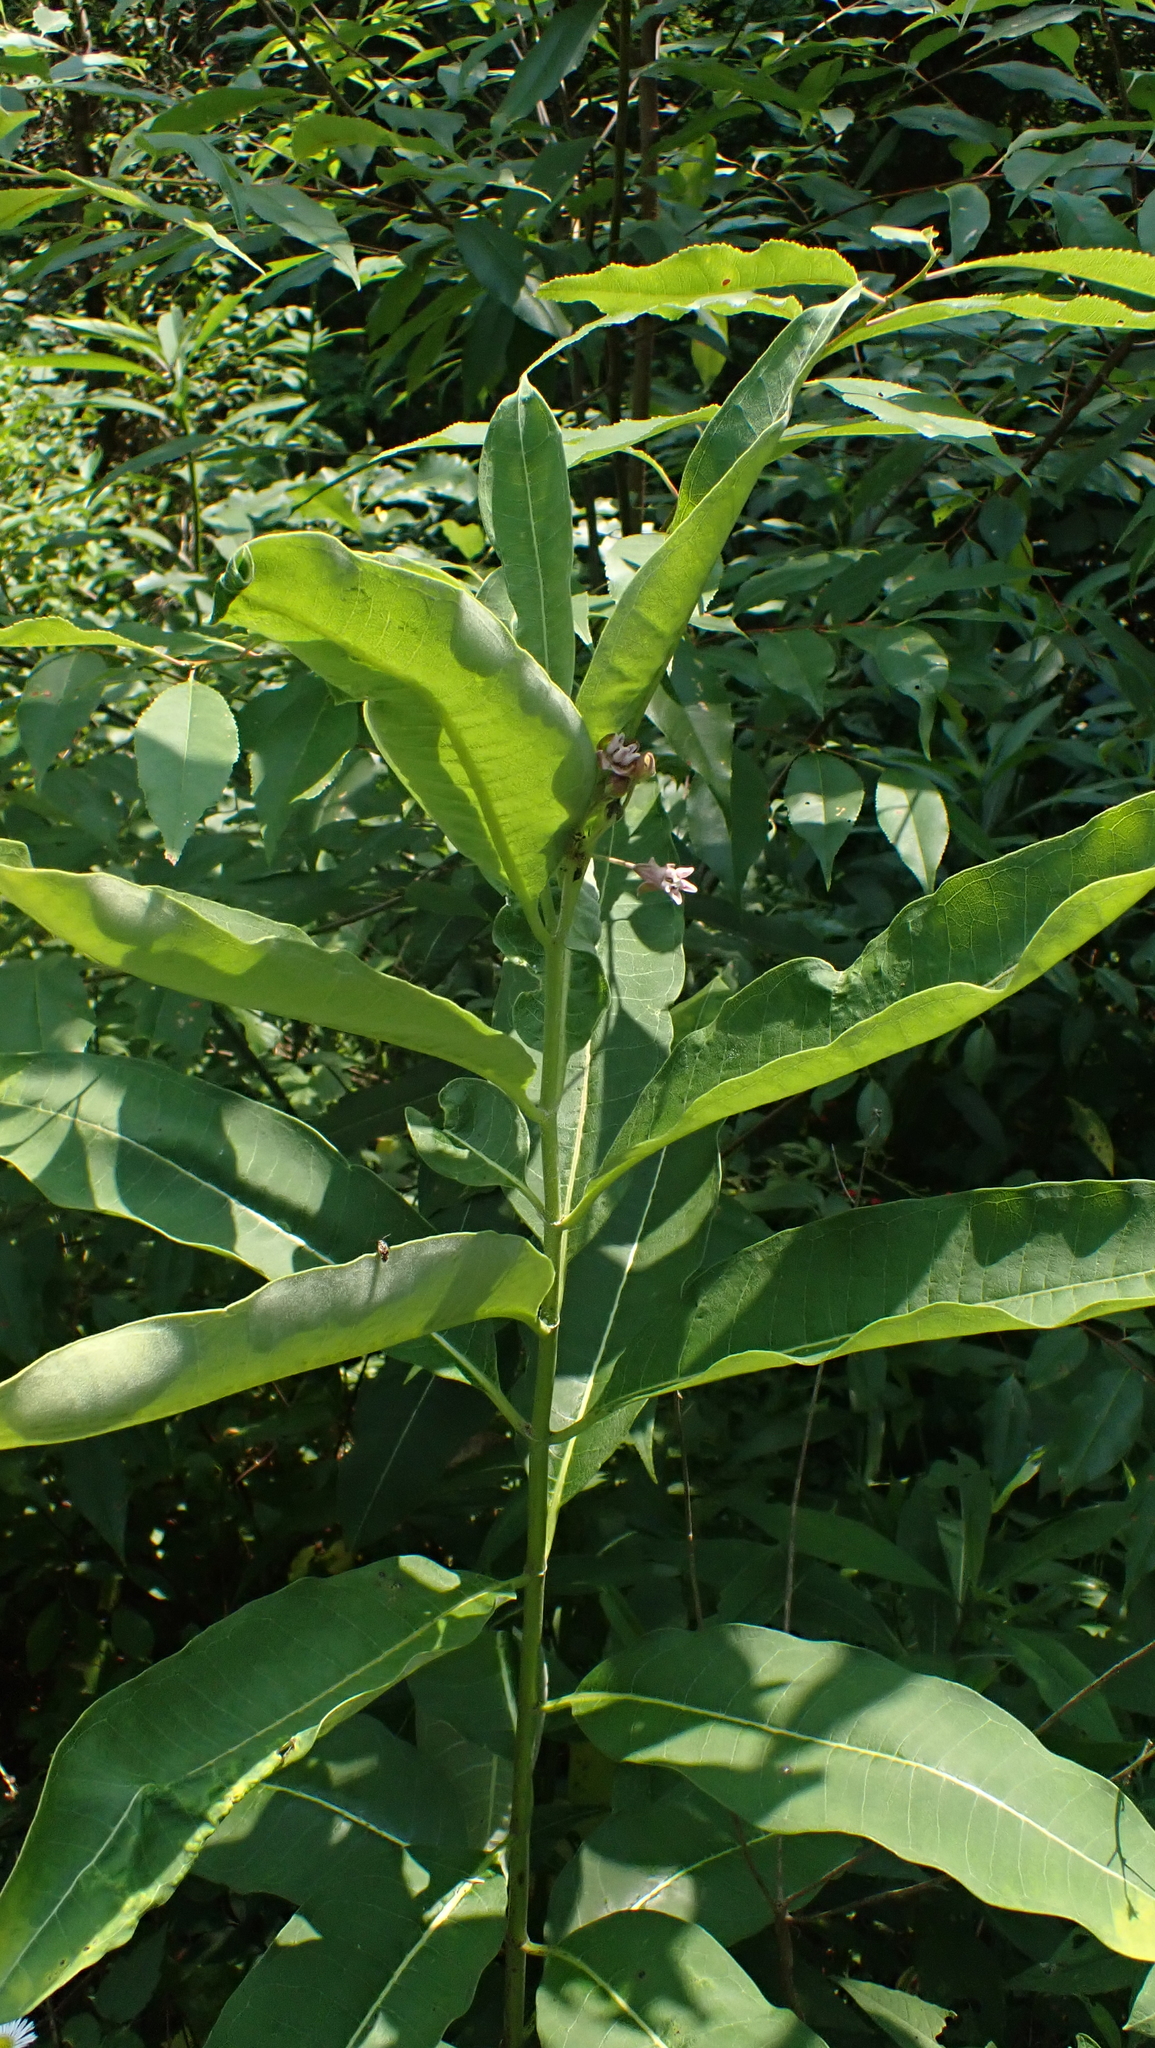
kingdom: Plantae
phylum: Tracheophyta
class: Magnoliopsida
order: Gentianales
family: Apocynaceae
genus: Asclepias
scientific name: Asclepias syriaca
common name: Common milkweed
